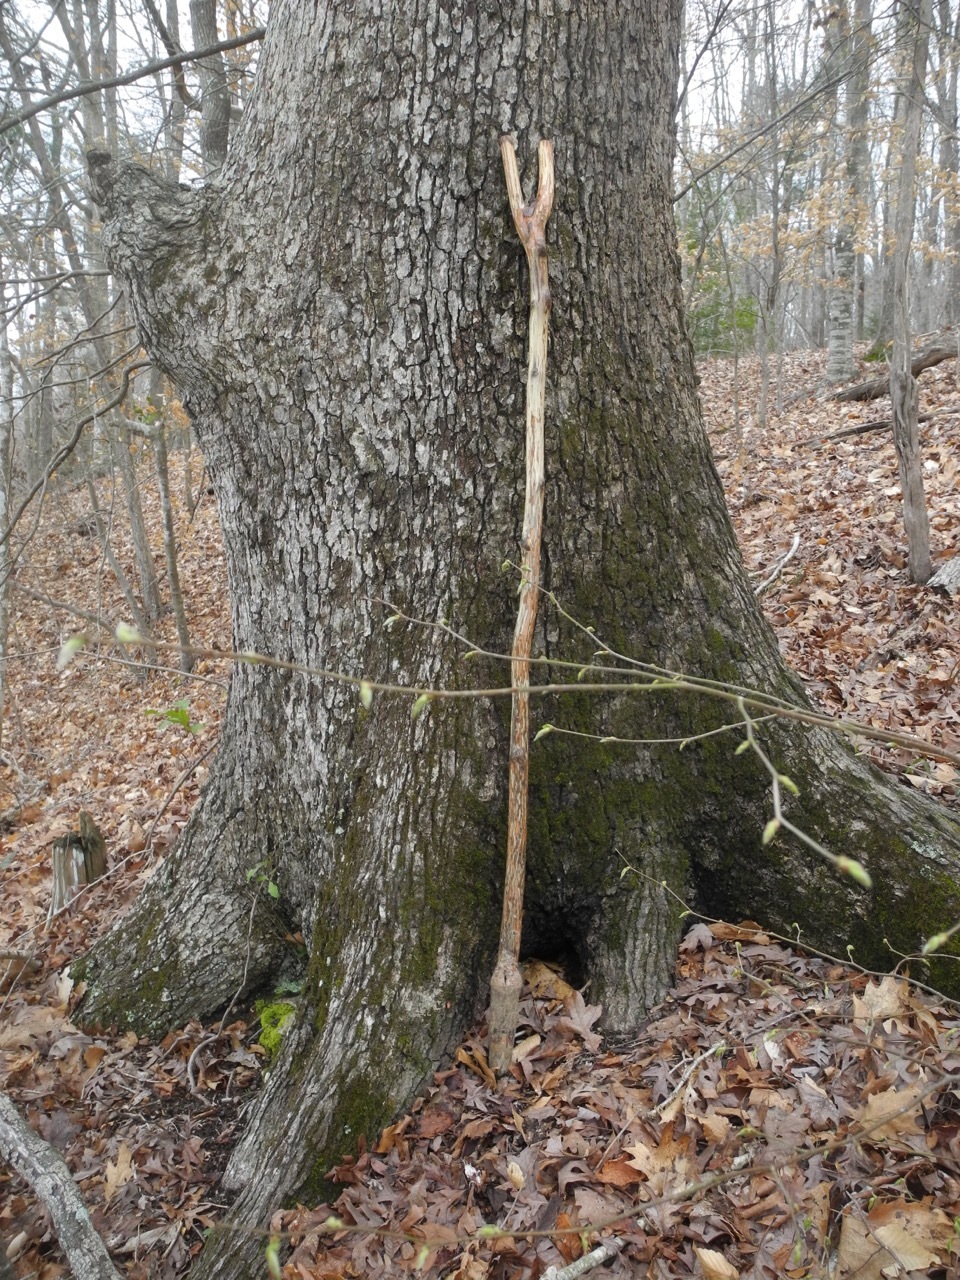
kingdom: Plantae
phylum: Tracheophyta
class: Magnoliopsida
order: Fagales
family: Fagaceae
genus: Quercus
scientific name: Quercus alba
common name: White oak
